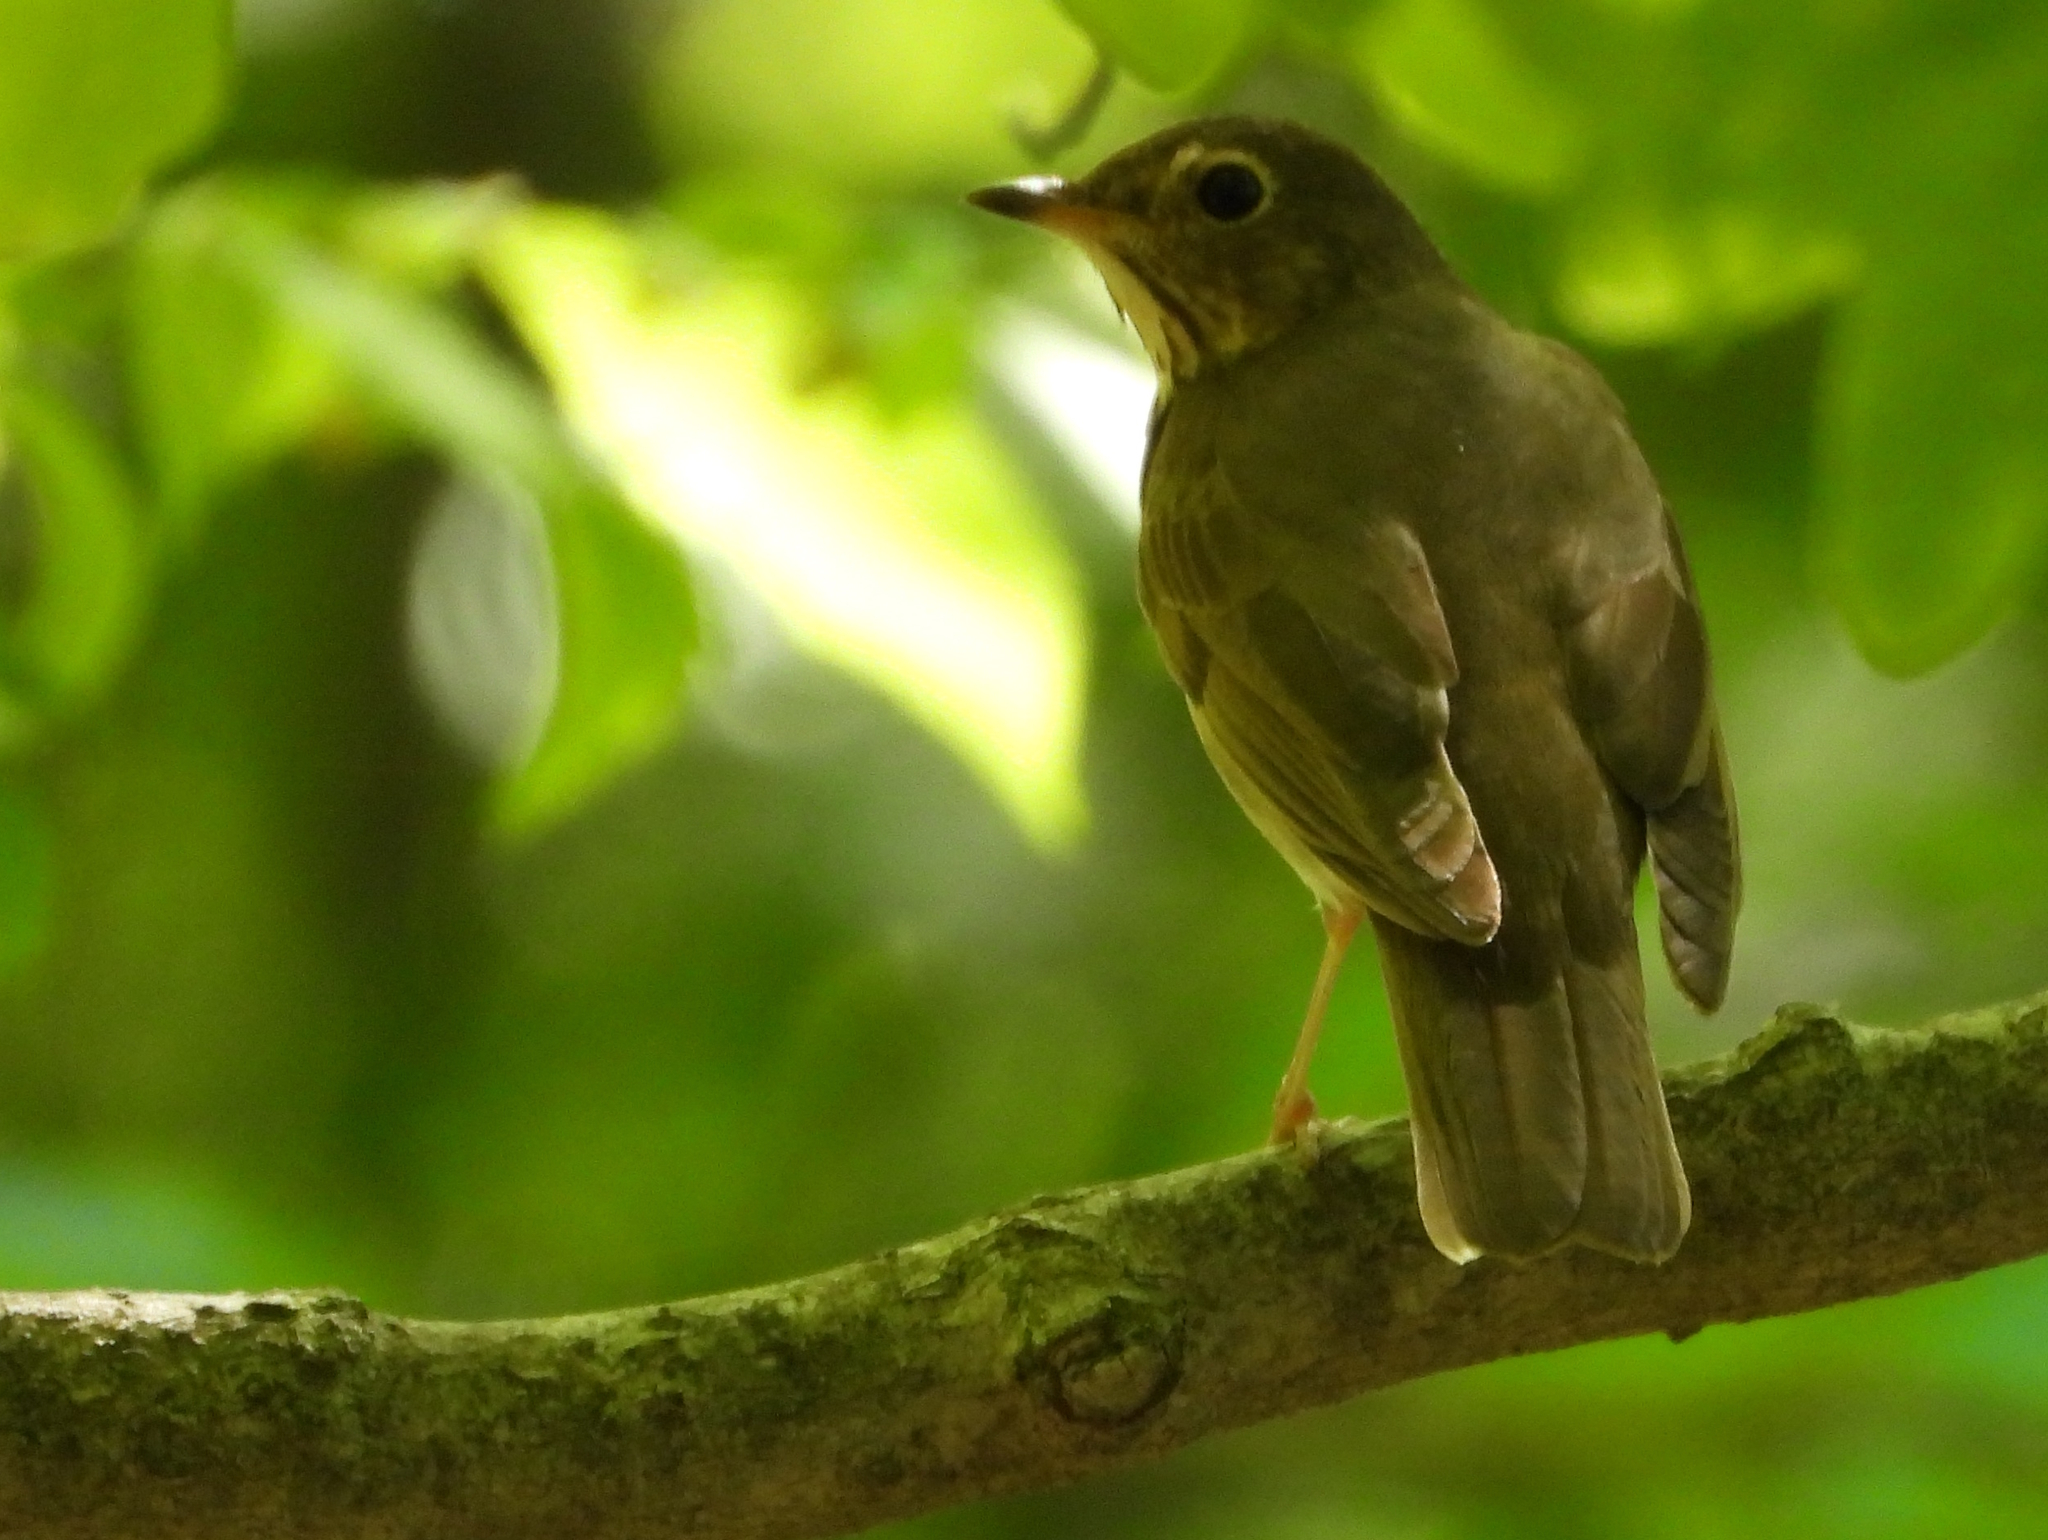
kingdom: Animalia
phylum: Chordata
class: Aves
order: Passeriformes
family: Turdidae
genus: Catharus
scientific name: Catharus ustulatus
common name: Swainson's thrush
